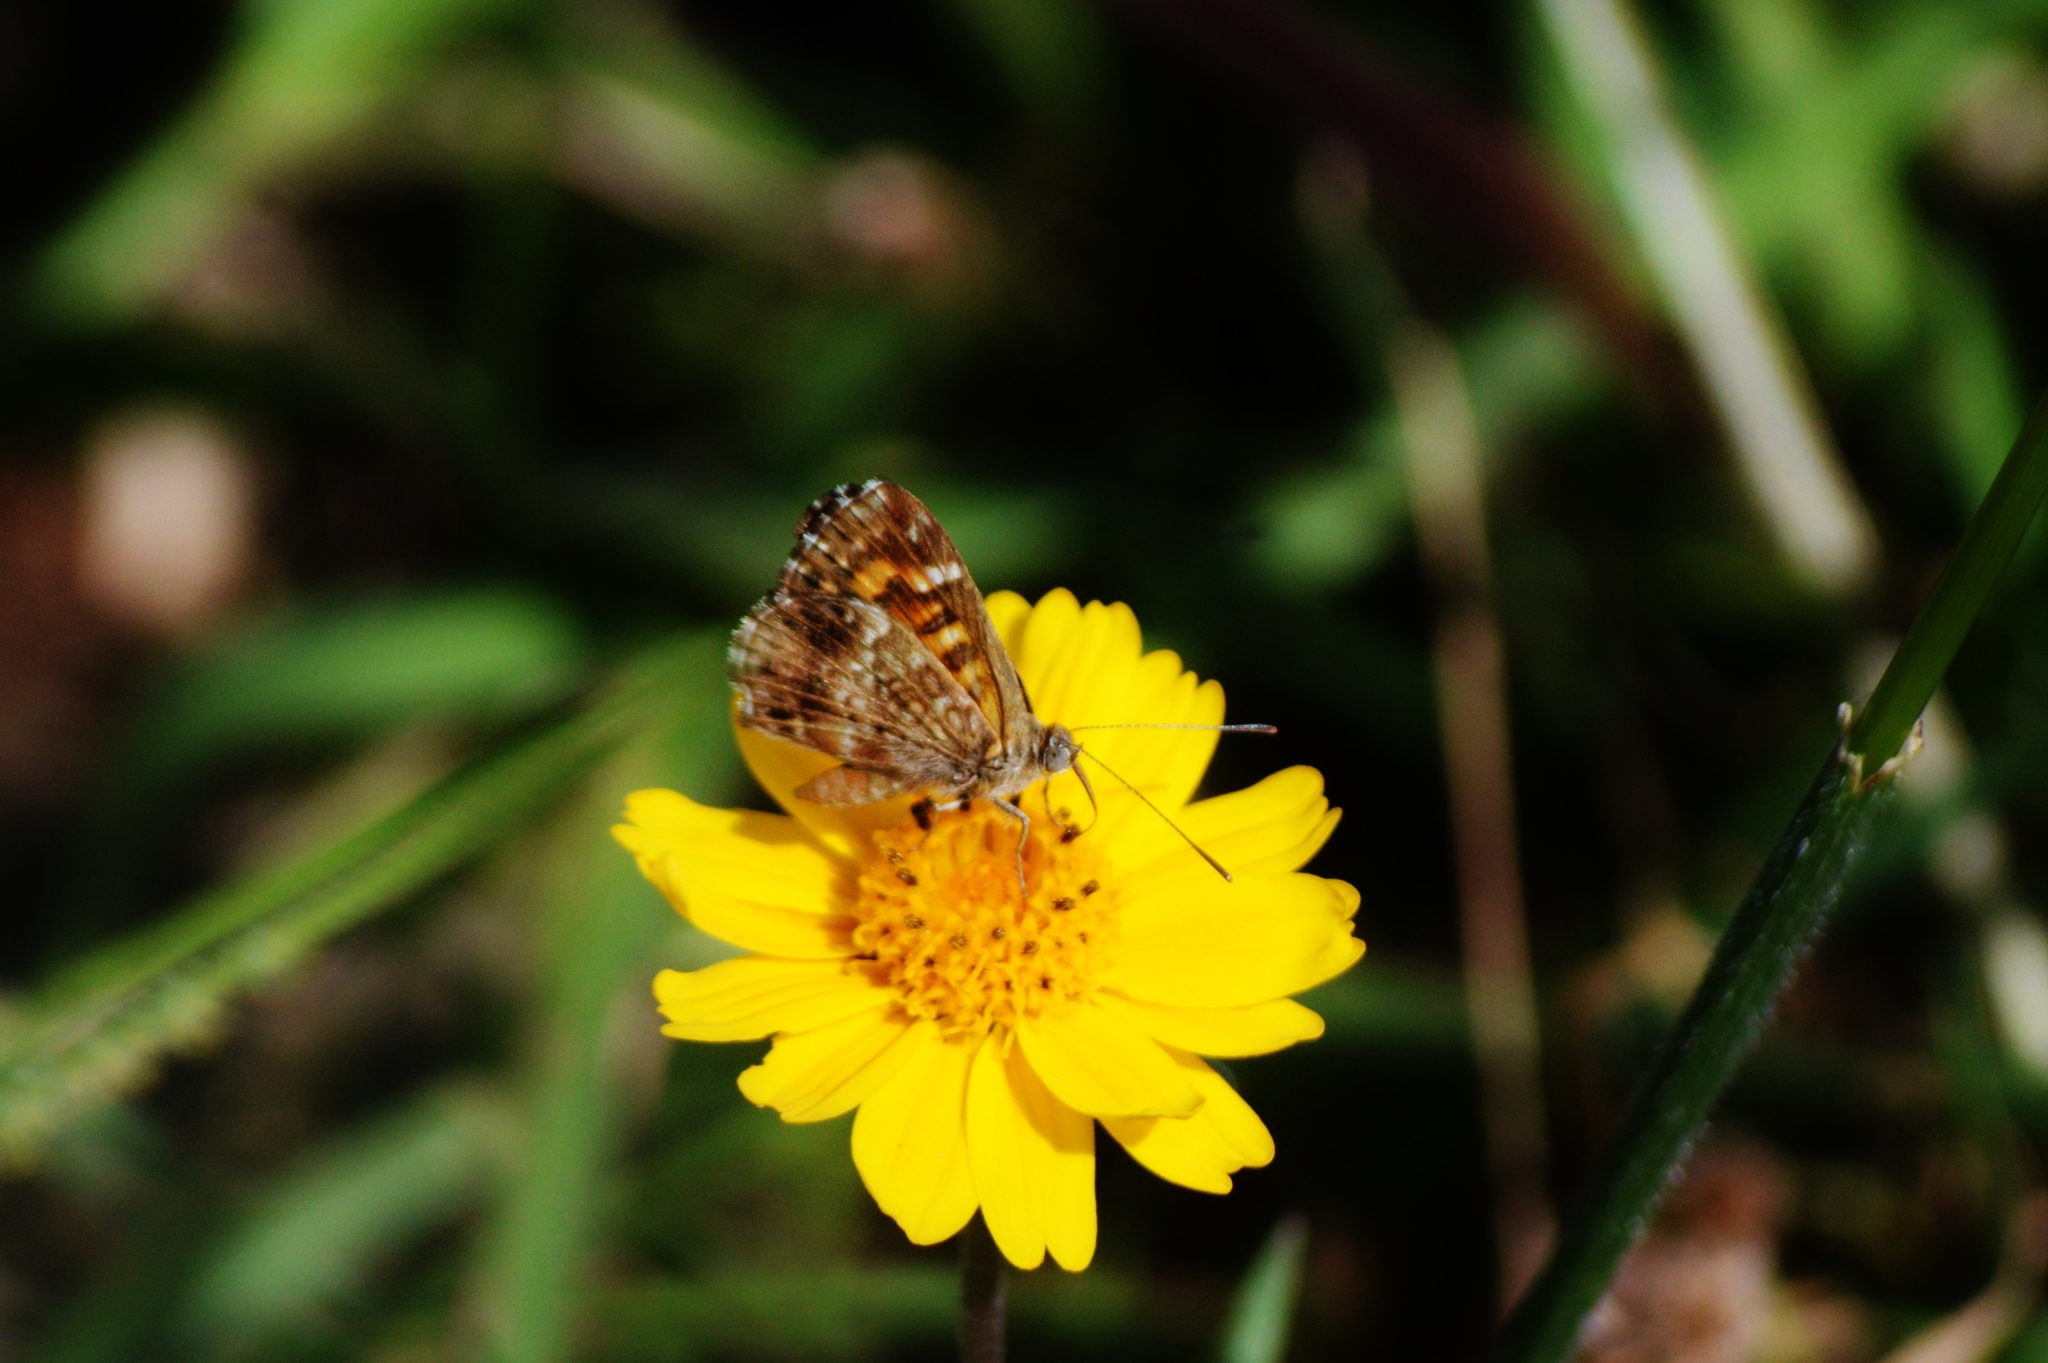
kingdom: Animalia
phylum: Arthropoda
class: Insecta
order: Lepidoptera
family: Lycaenidae
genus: Aricoris
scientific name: Aricoris epulus
